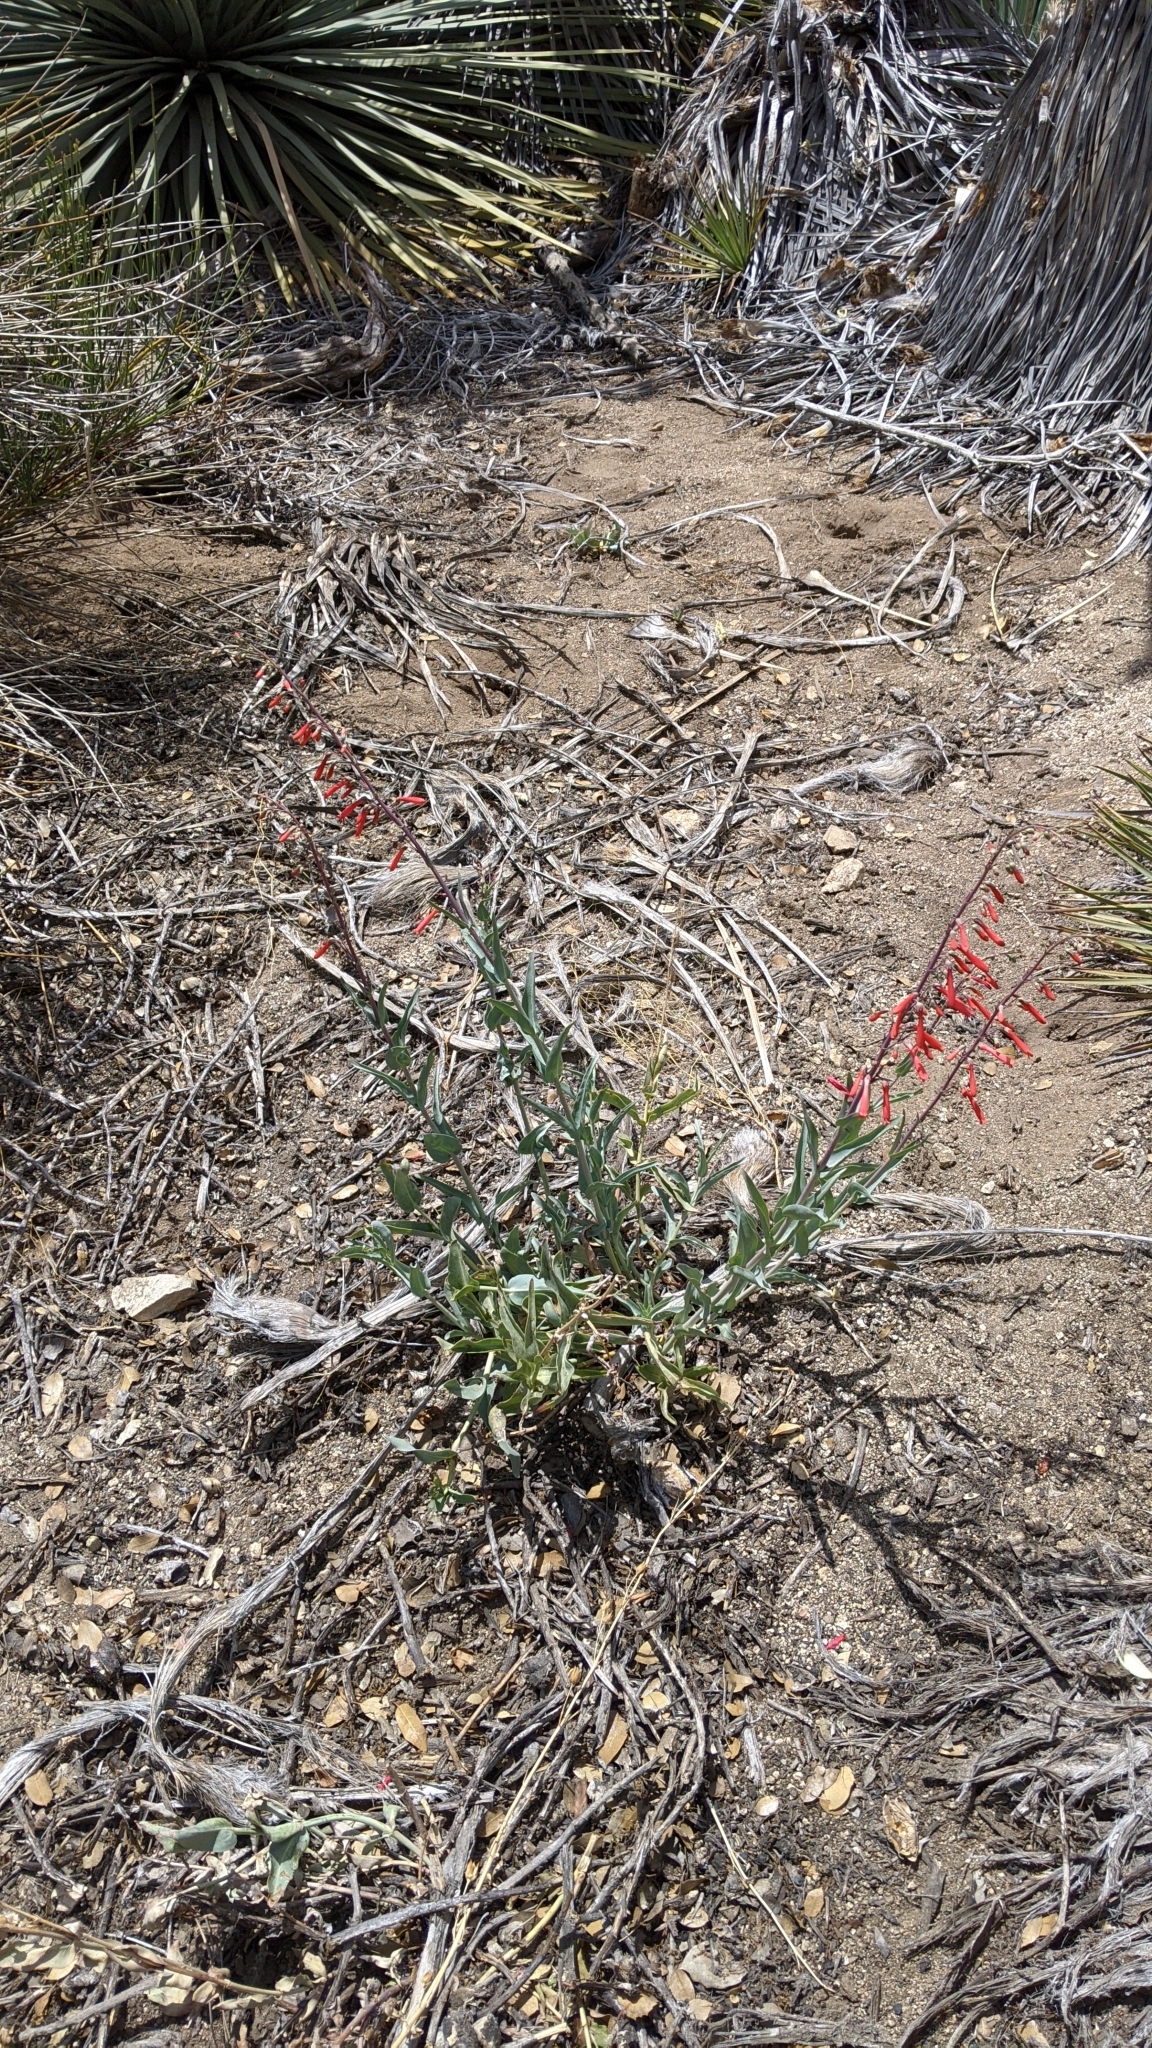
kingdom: Plantae
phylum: Tracheophyta
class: Magnoliopsida
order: Lamiales
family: Plantaginaceae
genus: Penstemon
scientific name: Penstemon centranthifolius
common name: Scarlet bugler
